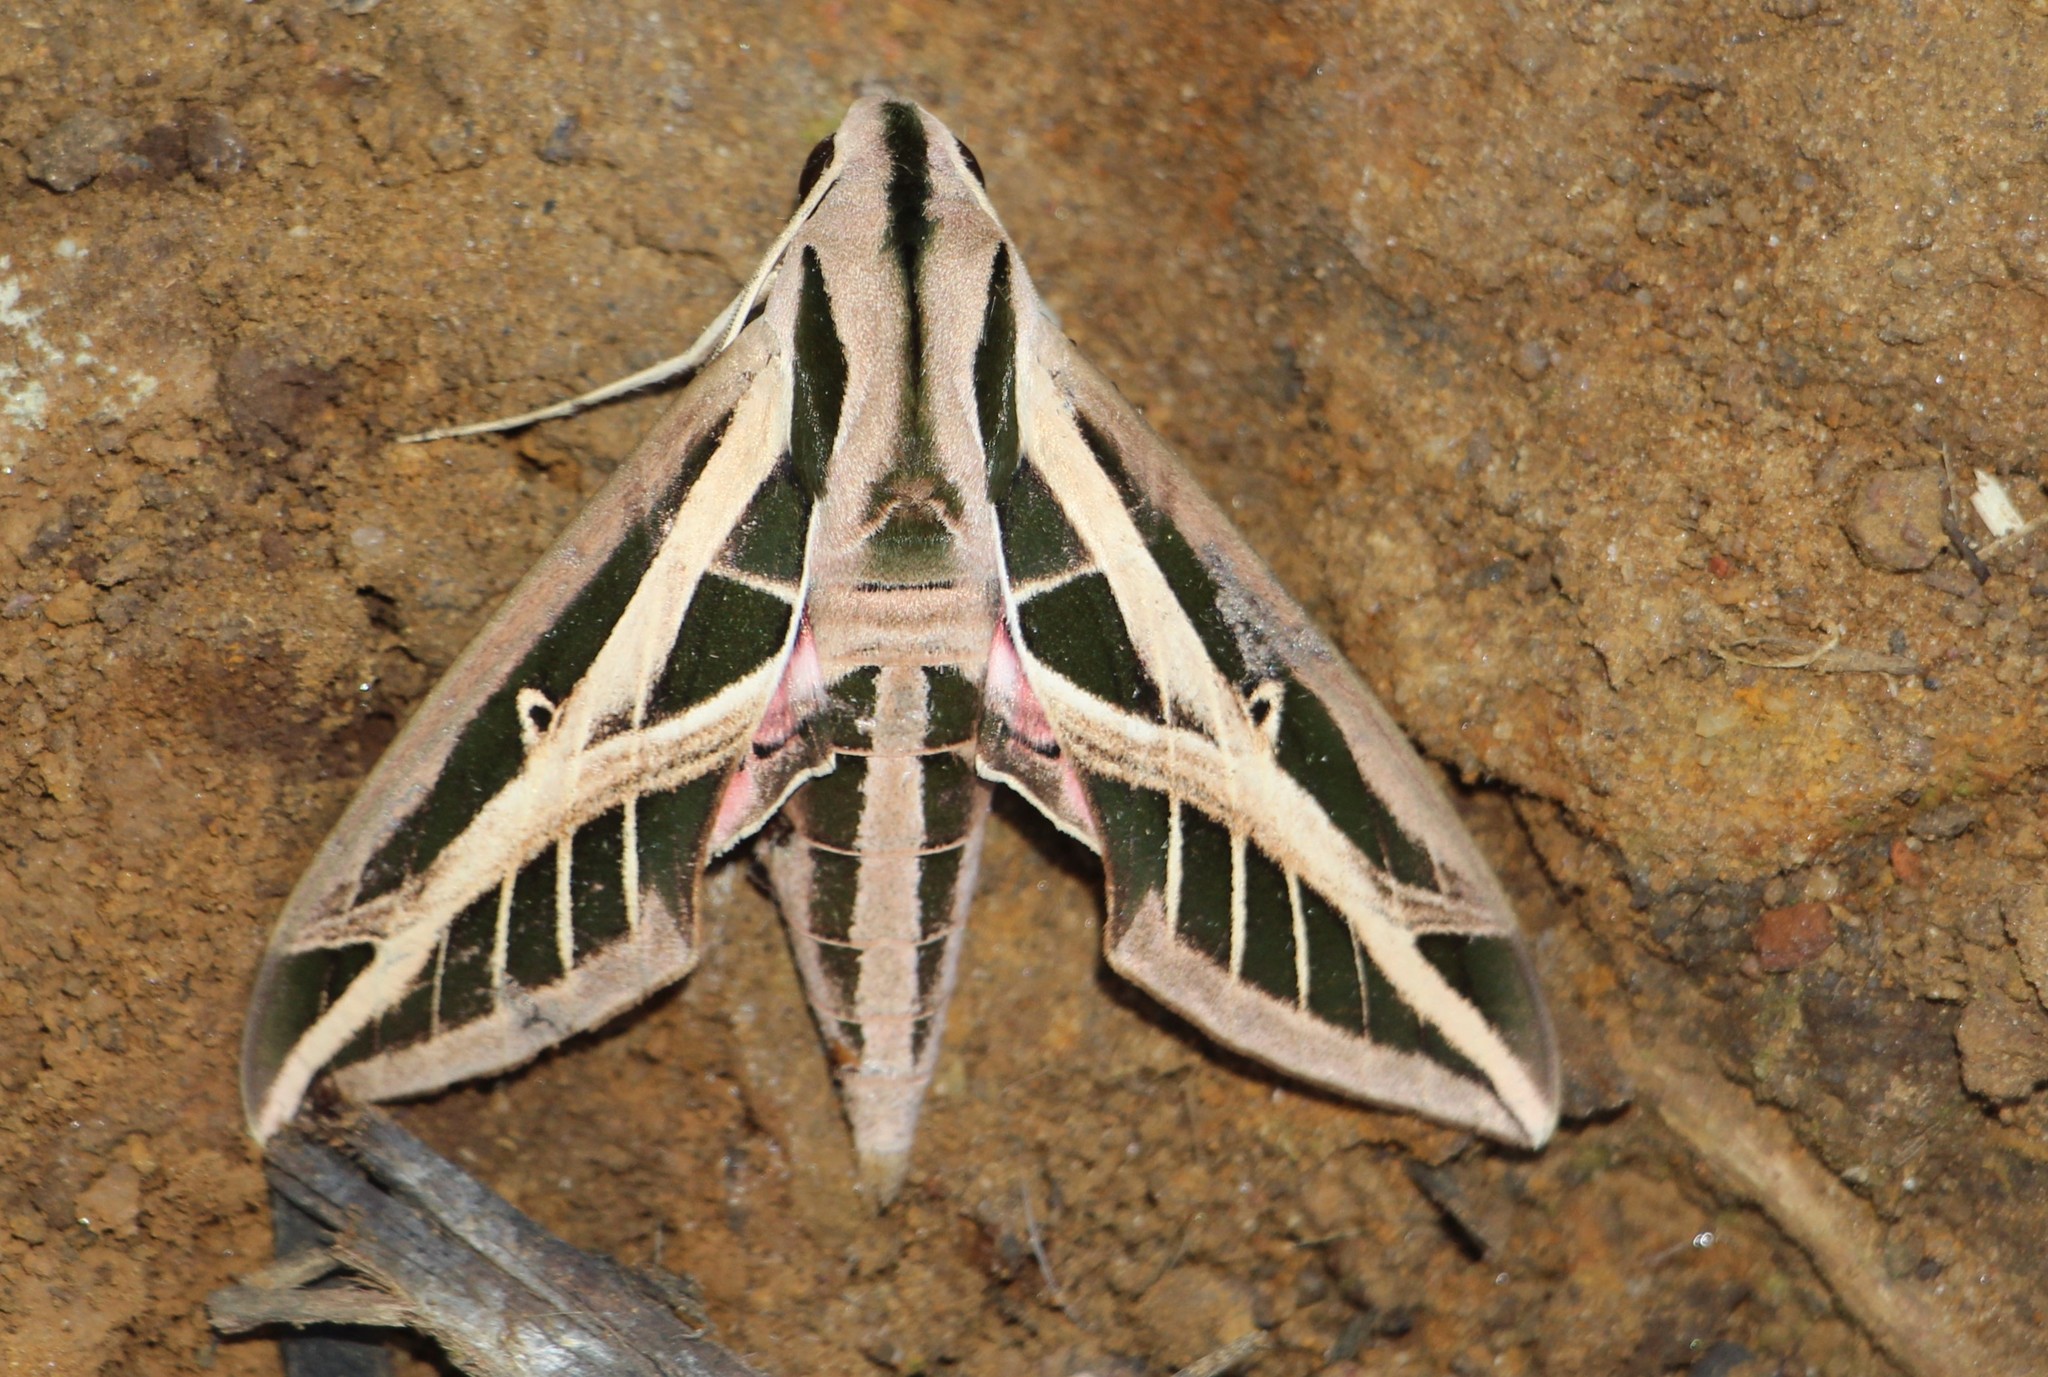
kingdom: Animalia
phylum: Arthropoda
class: Insecta
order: Lepidoptera
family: Sphingidae
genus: Eumorpha
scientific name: Eumorpha fasciatus
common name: Banded sphinx
